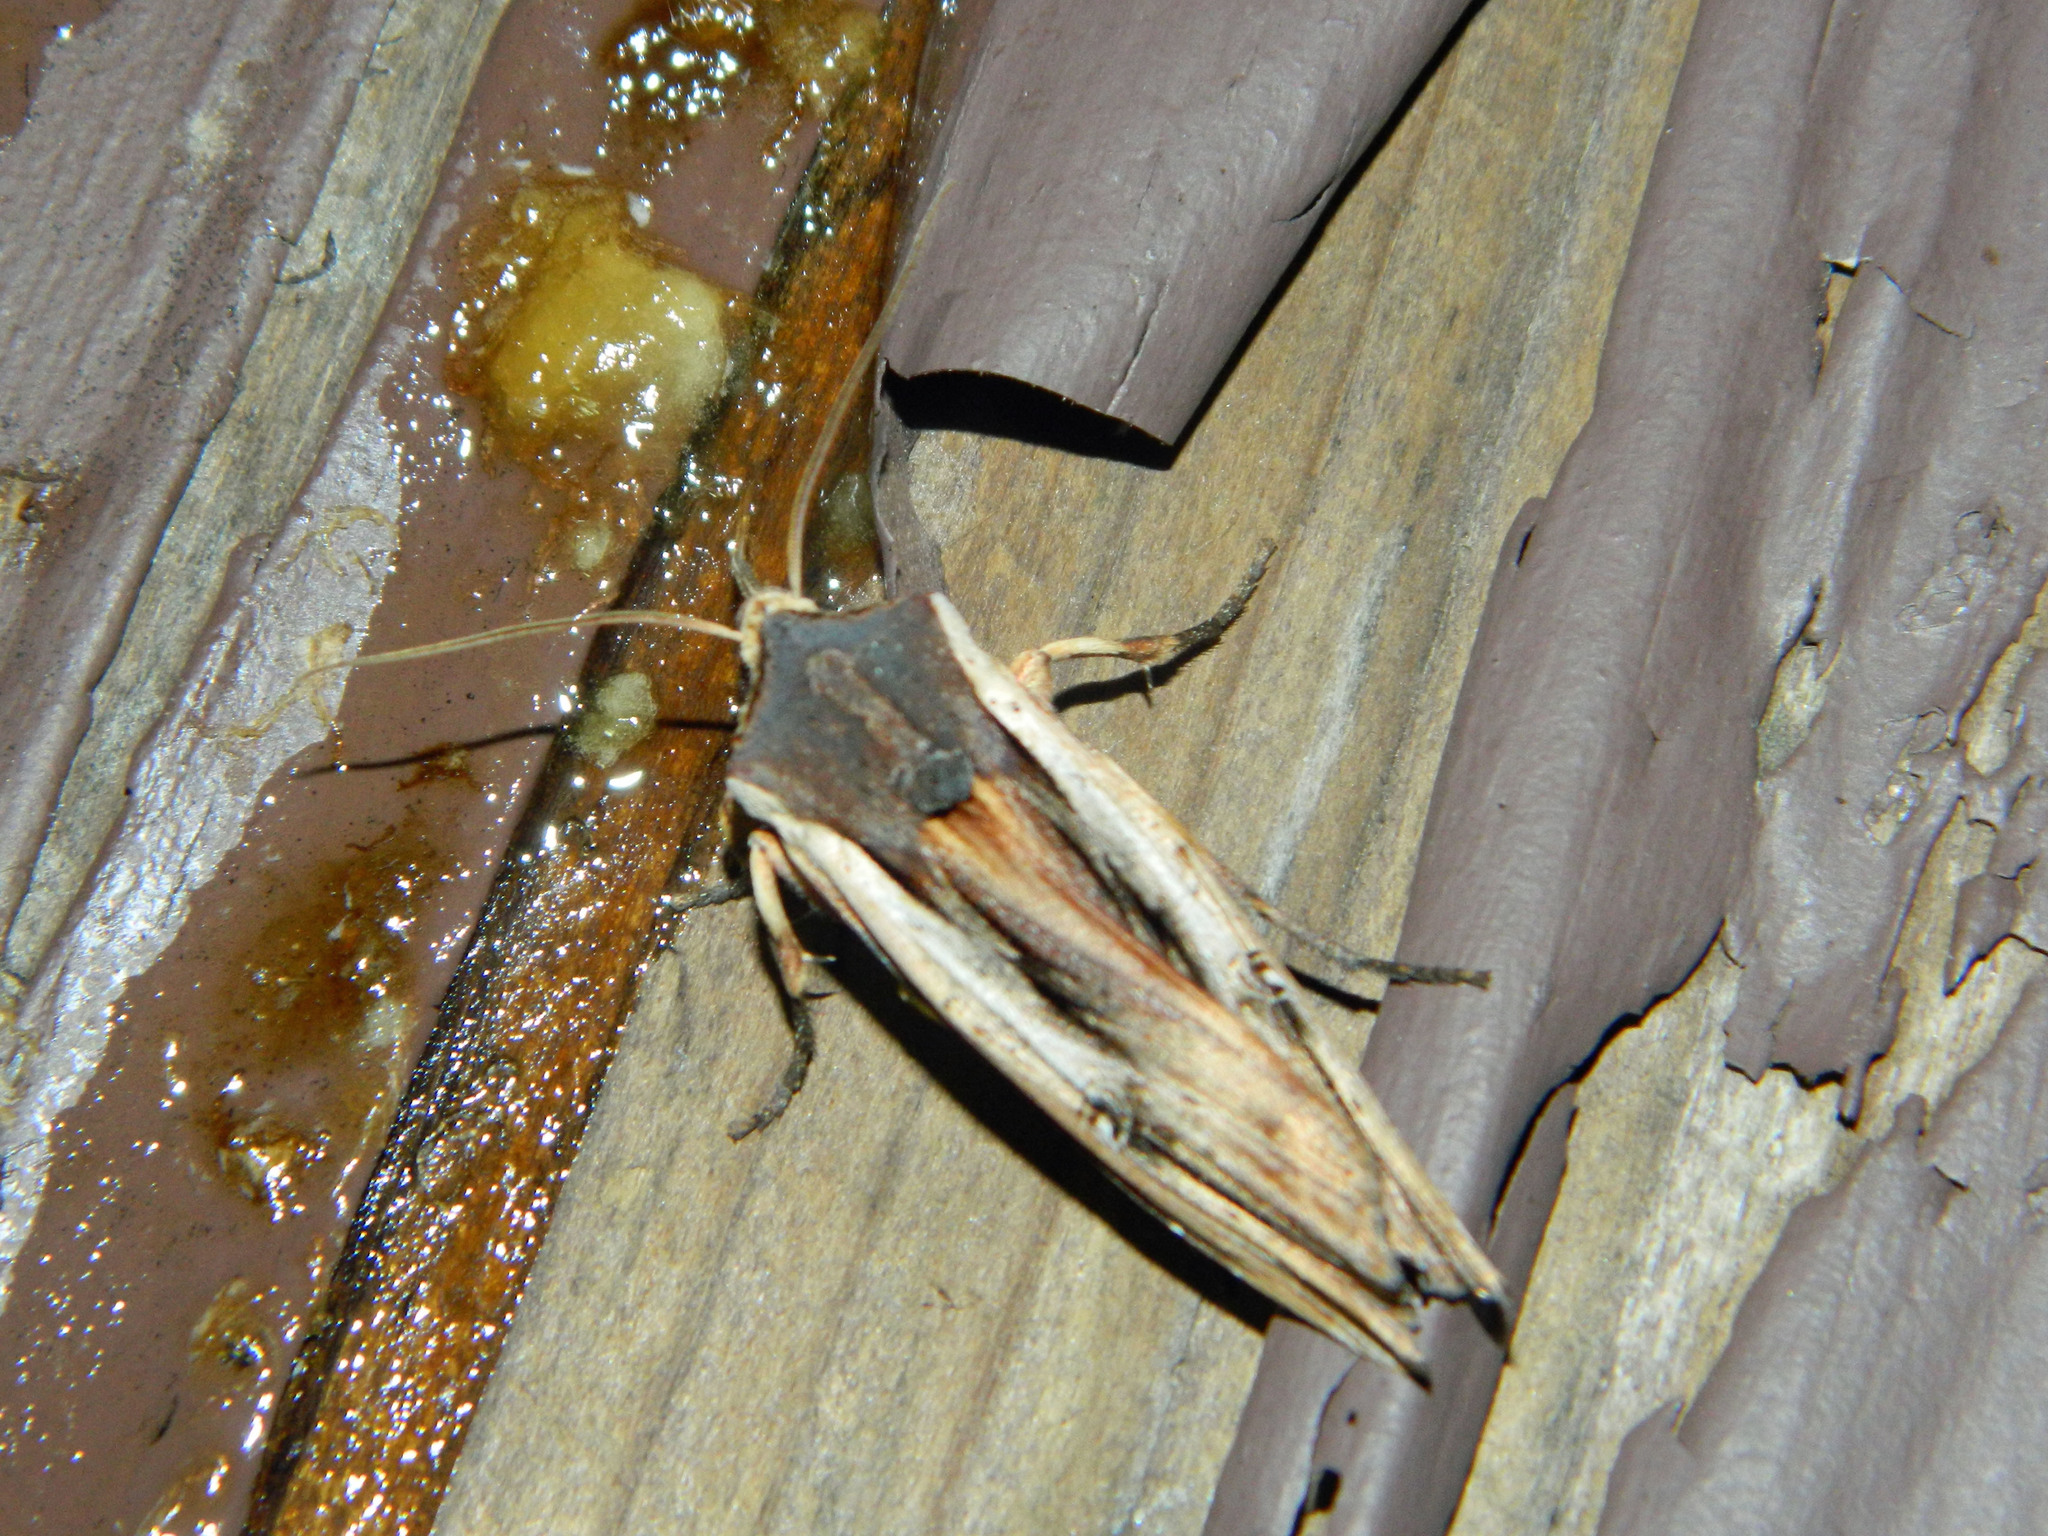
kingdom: Animalia
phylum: Arthropoda
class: Insecta
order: Lepidoptera
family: Noctuidae
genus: Xylena
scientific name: Xylena nupera
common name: American swordgrass moth
